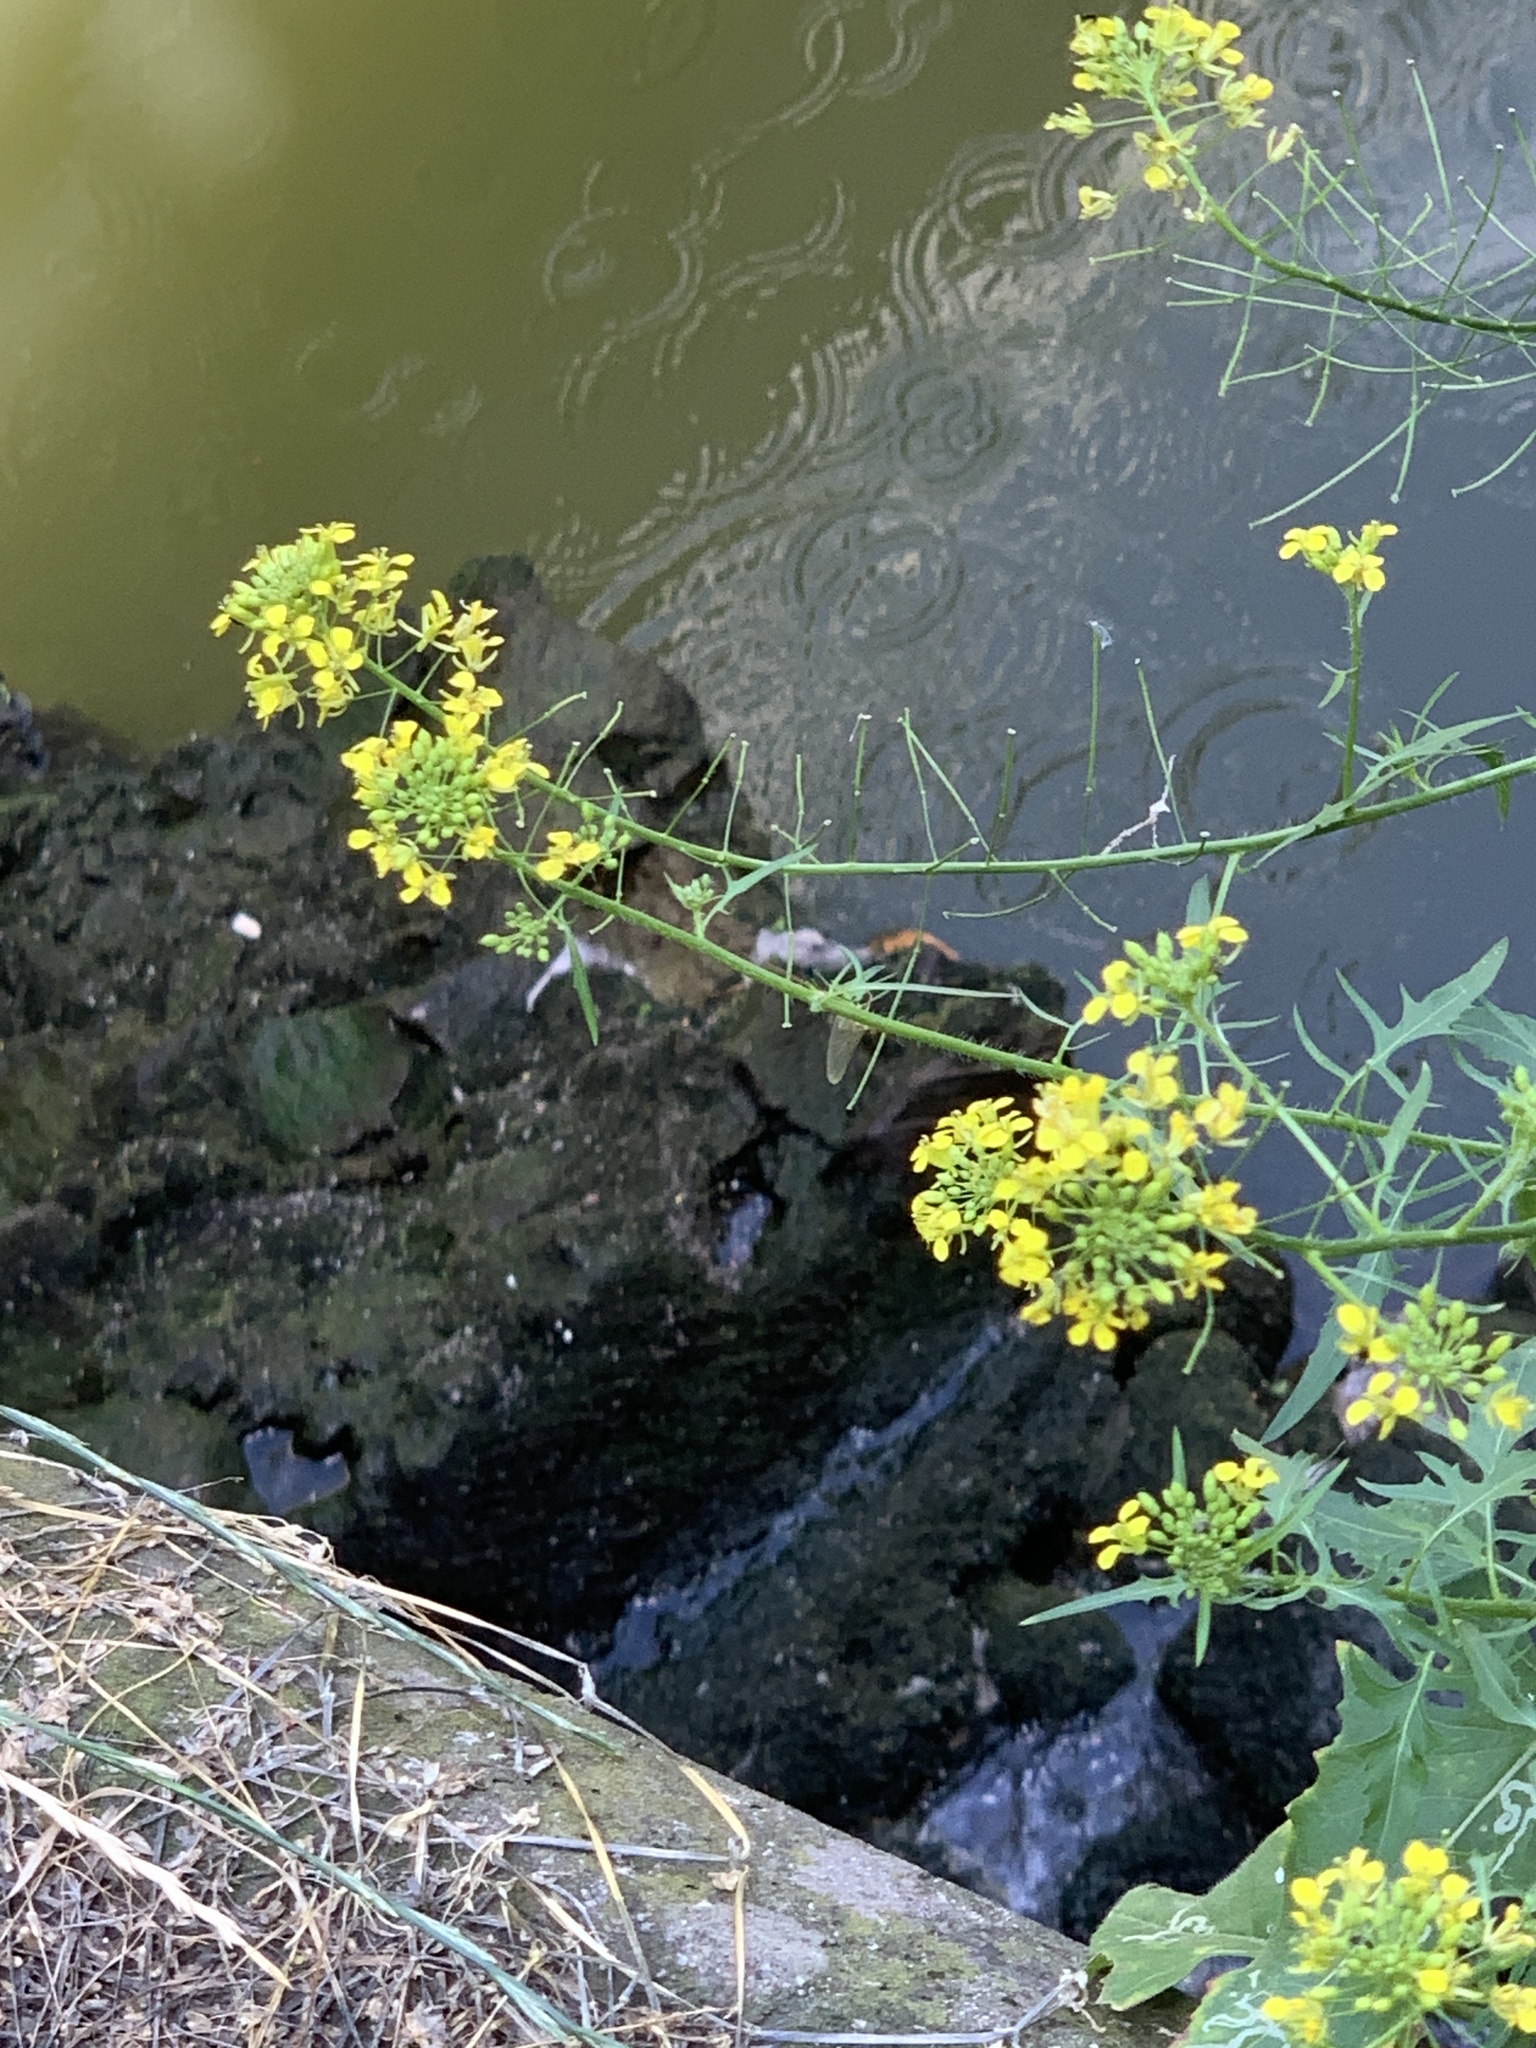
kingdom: Plantae
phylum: Tracheophyta
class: Magnoliopsida
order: Brassicales
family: Brassicaceae
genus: Sisymbrium
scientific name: Sisymbrium loeselii
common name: False london-rocket
